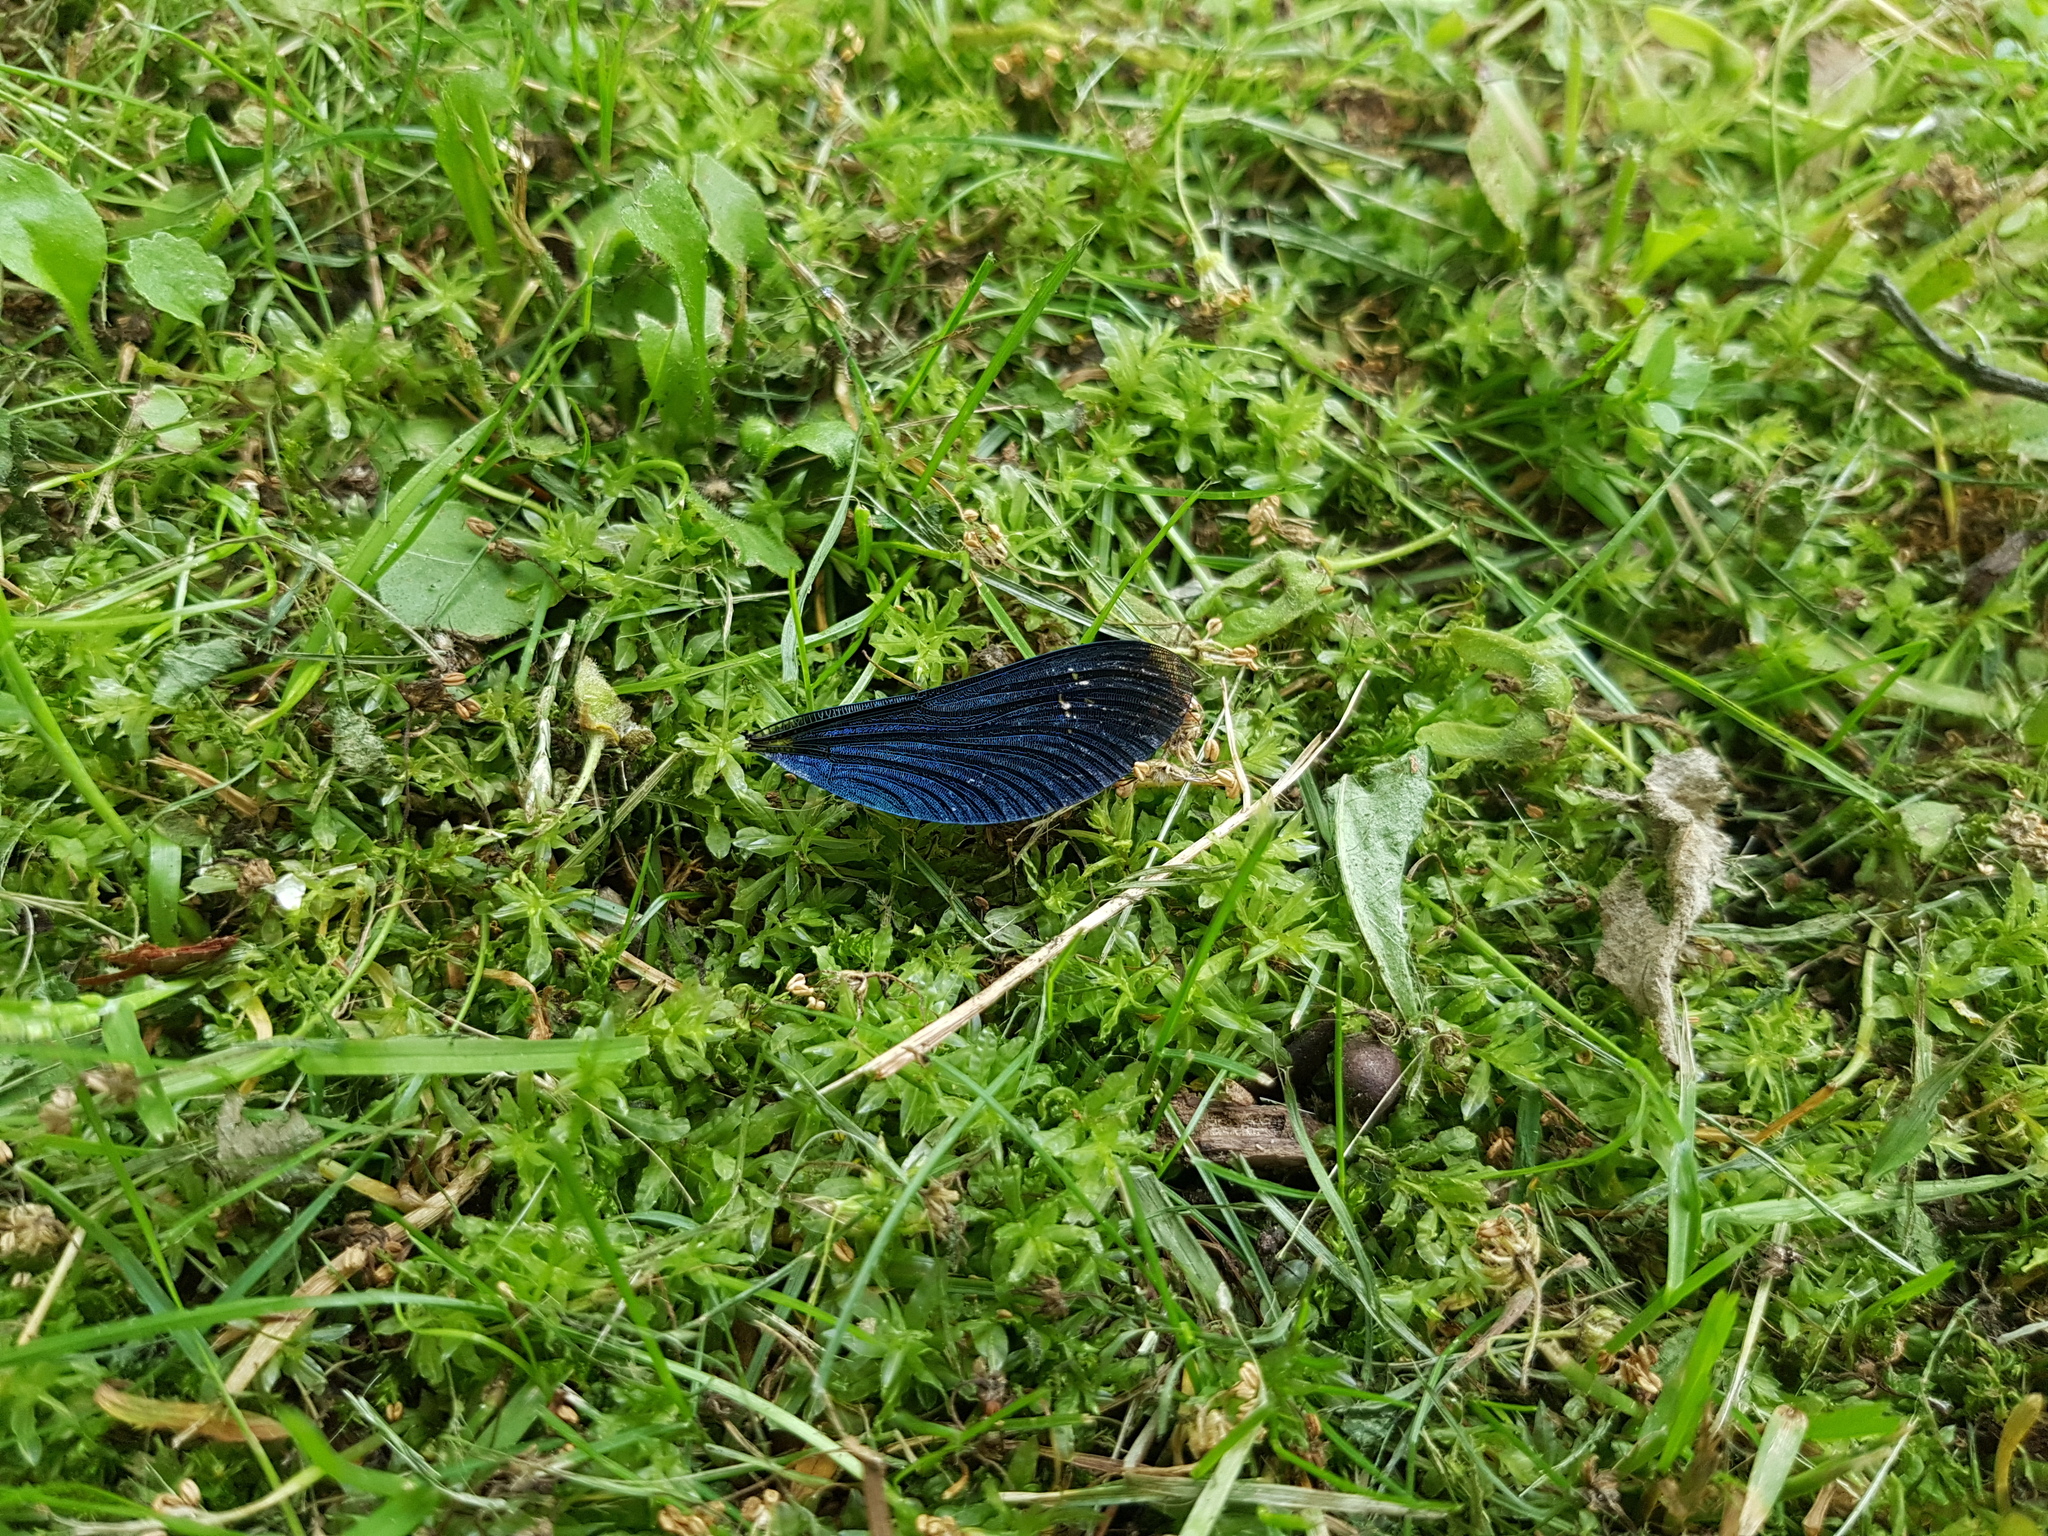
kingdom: Animalia
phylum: Arthropoda
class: Insecta
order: Odonata
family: Calopterygidae
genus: Calopteryx
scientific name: Calopteryx virgo
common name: Beautiful demoiselle
